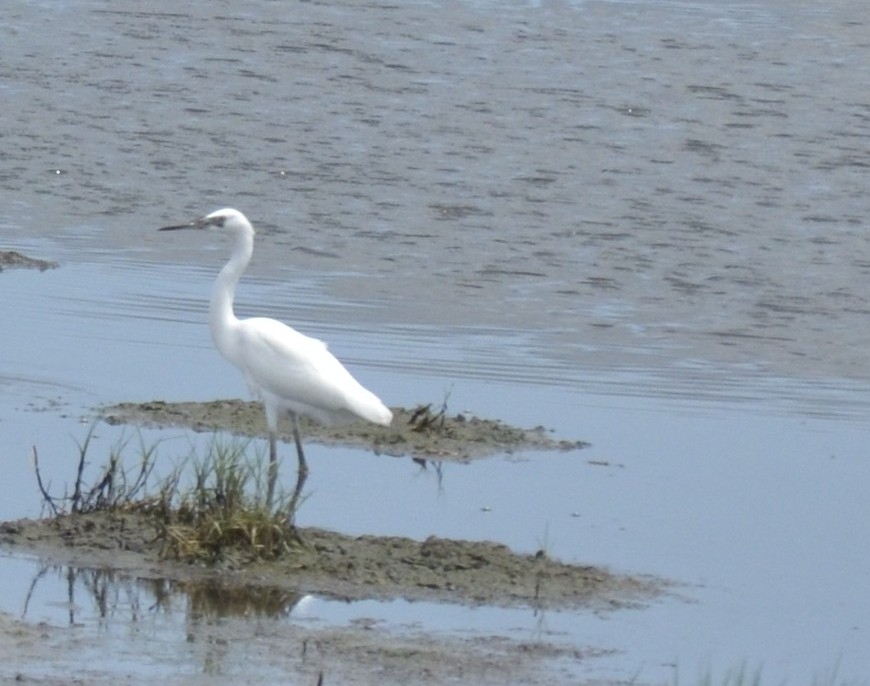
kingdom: Animalia
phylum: Chordata
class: Aves
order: Pelecaniformes
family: Ardeidae
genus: Egretta
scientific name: Egretta garzetta
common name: Little egret
